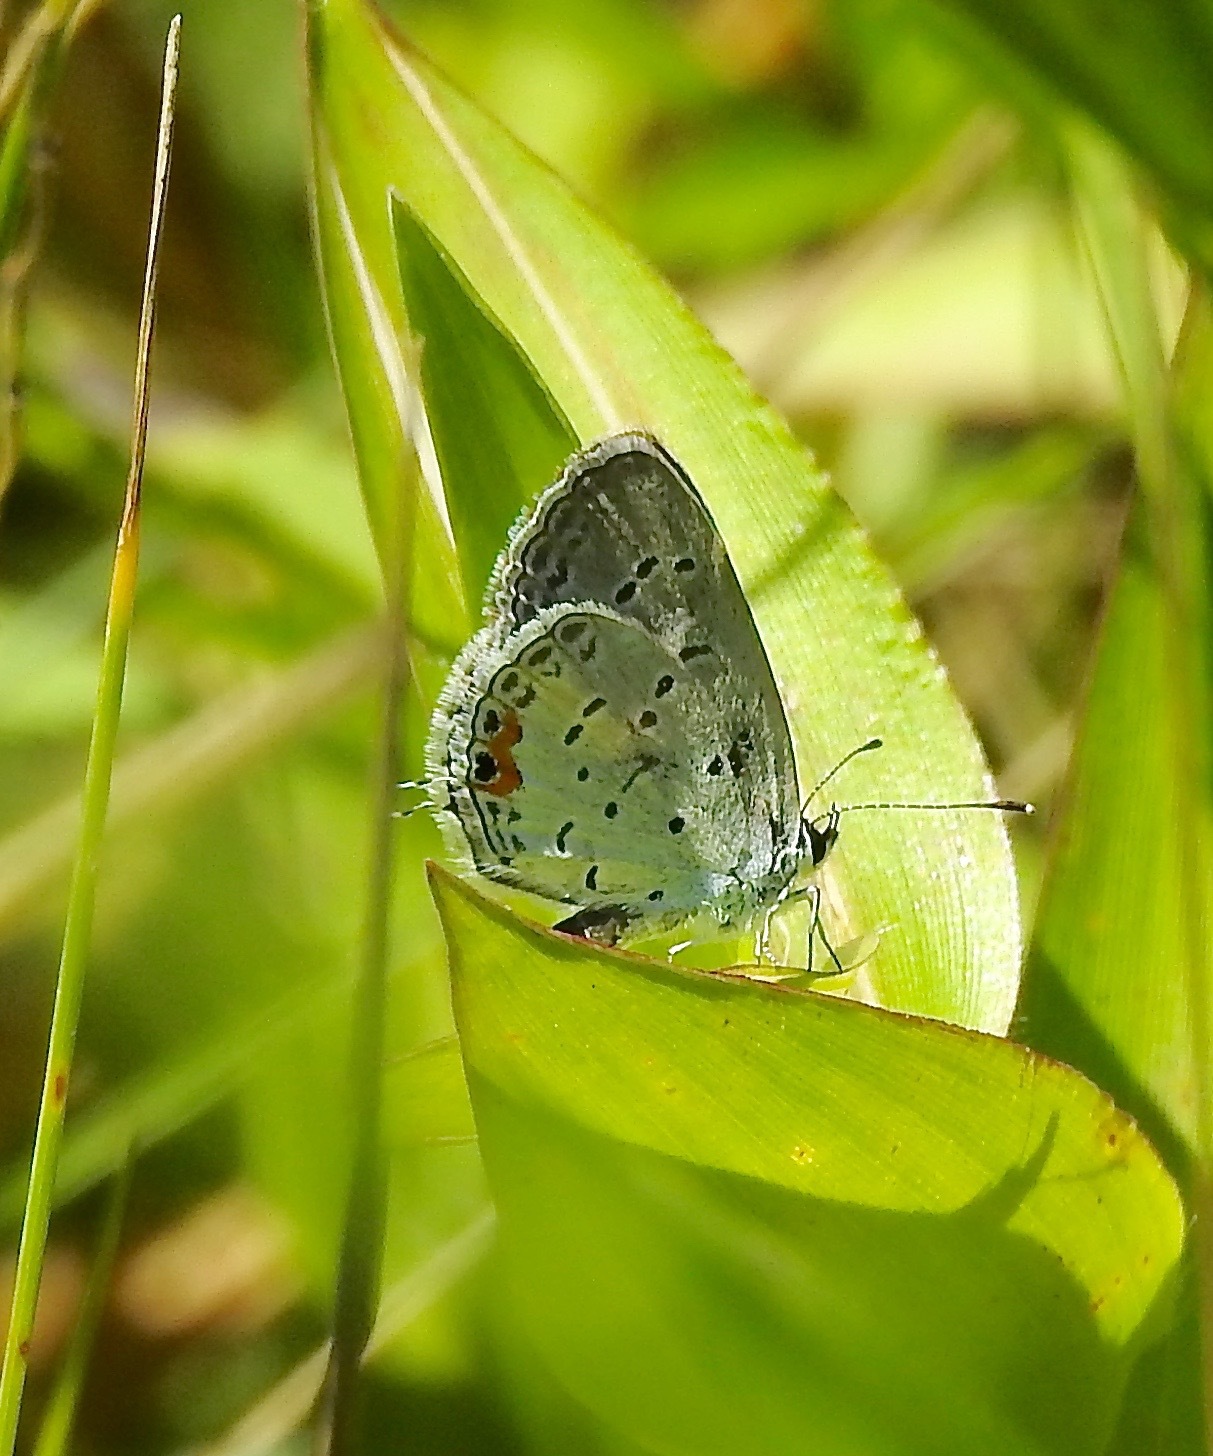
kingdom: Animalia
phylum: Arthropoda
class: Insecta
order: Lepidoptera
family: Lycaenidae
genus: Elkalyce
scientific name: Elkalyce comyntas
